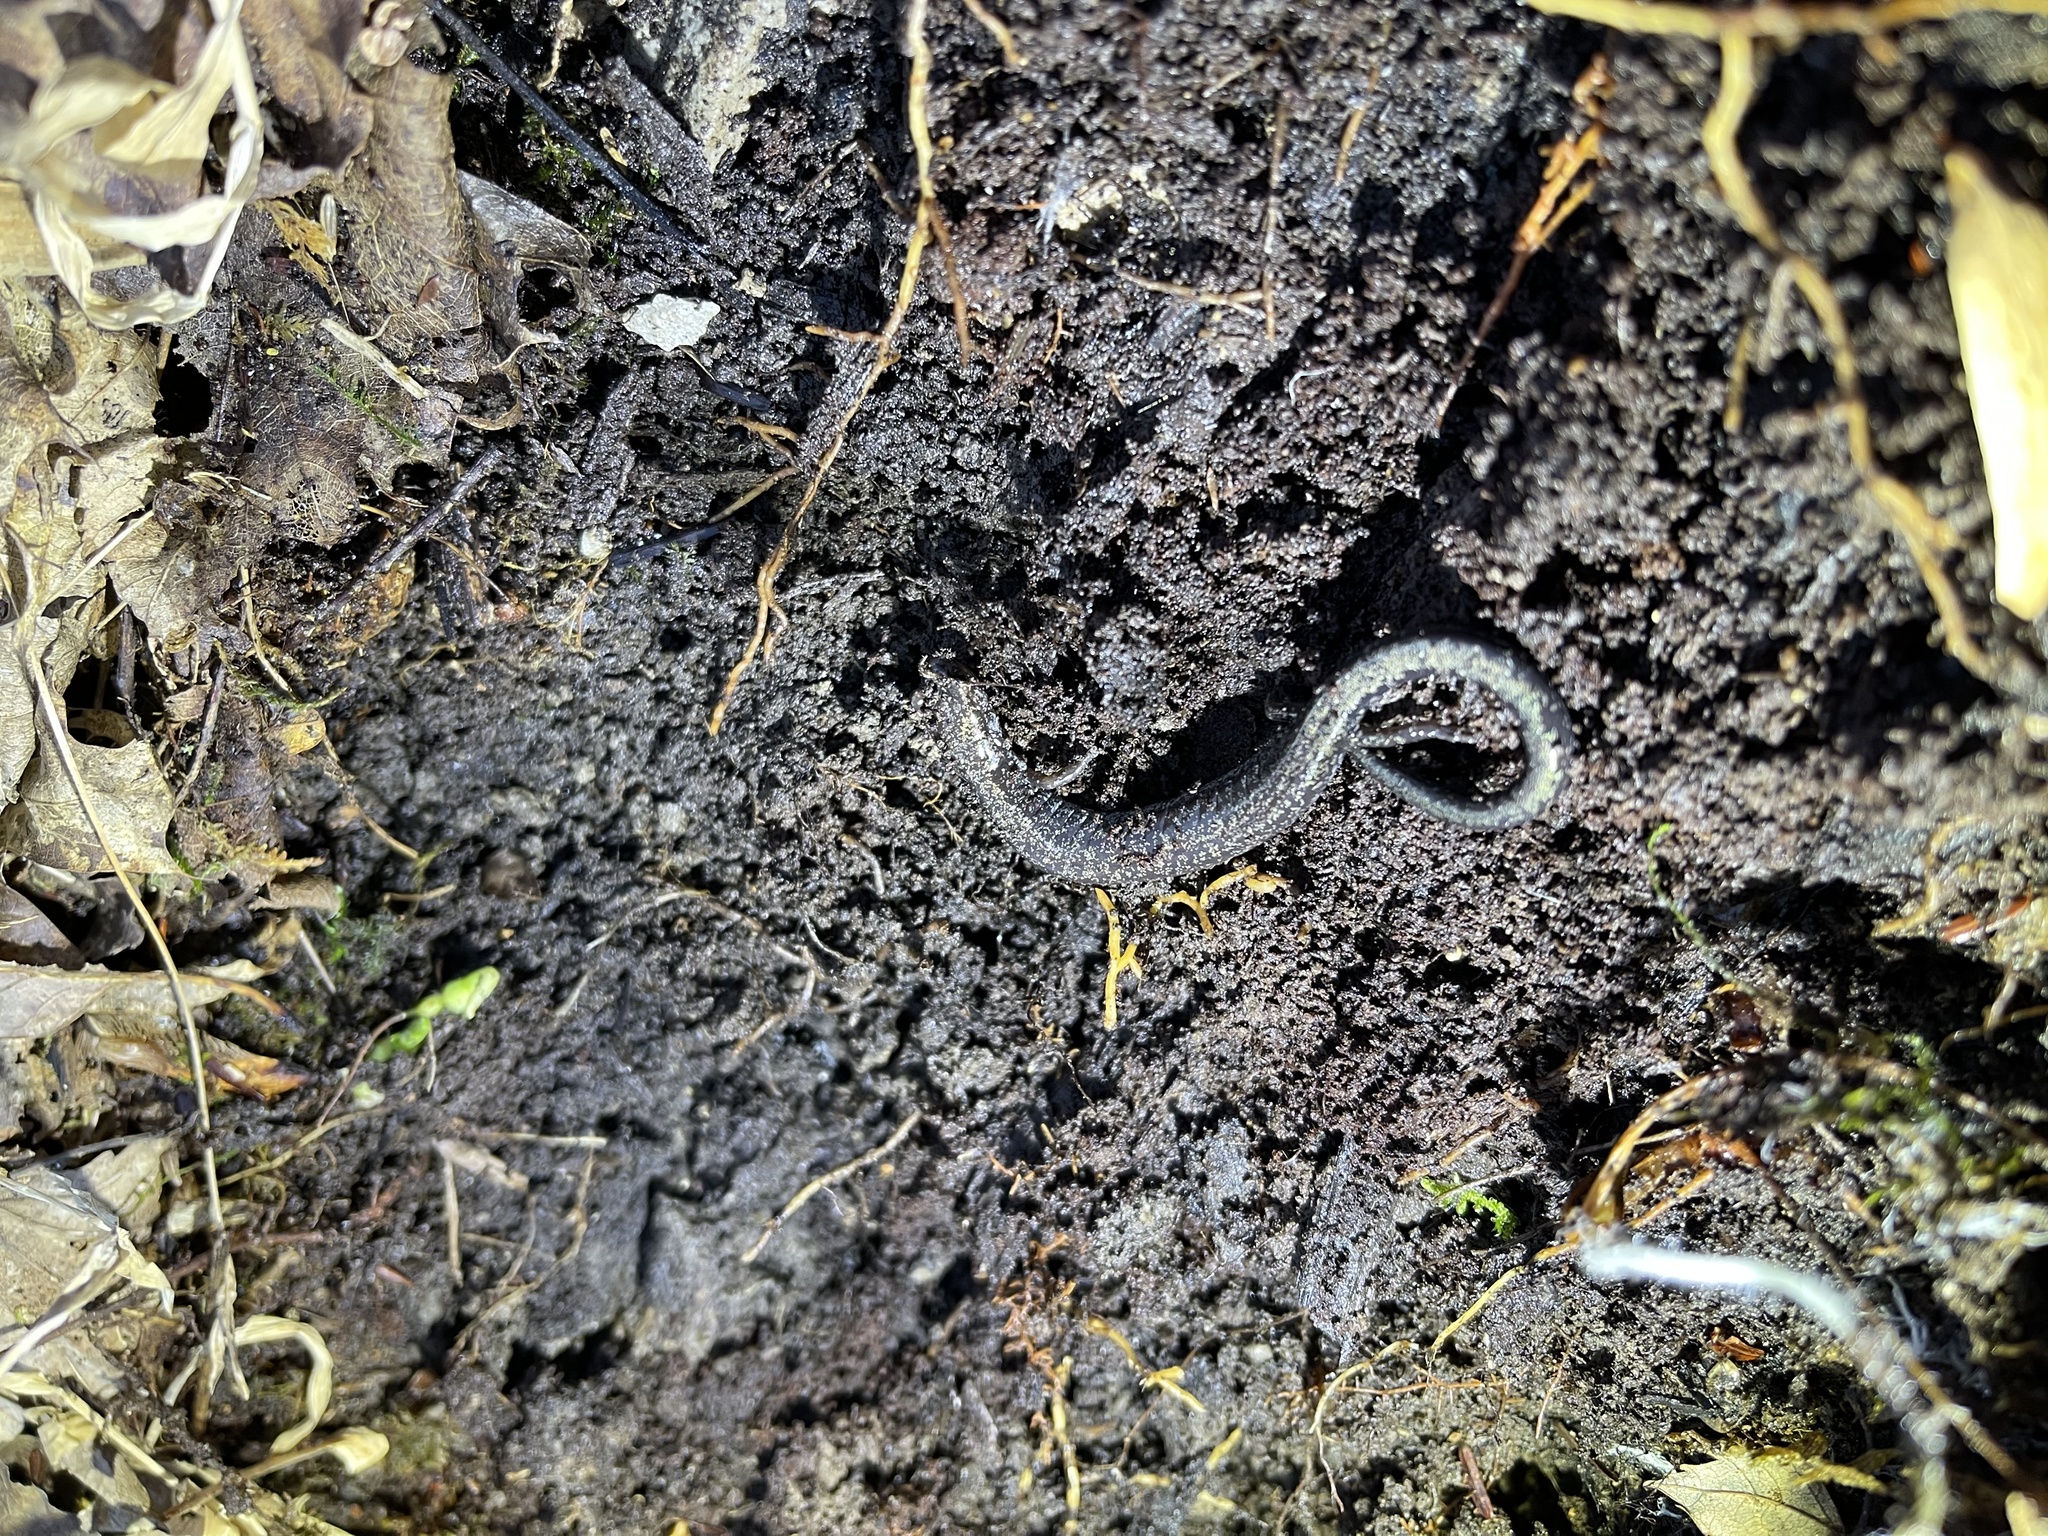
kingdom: Animalia
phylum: Chordata
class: Amphibia
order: Caudata
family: Plethodontidae
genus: Plethodon
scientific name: Plethodon richmondi
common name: Ravine salamander
